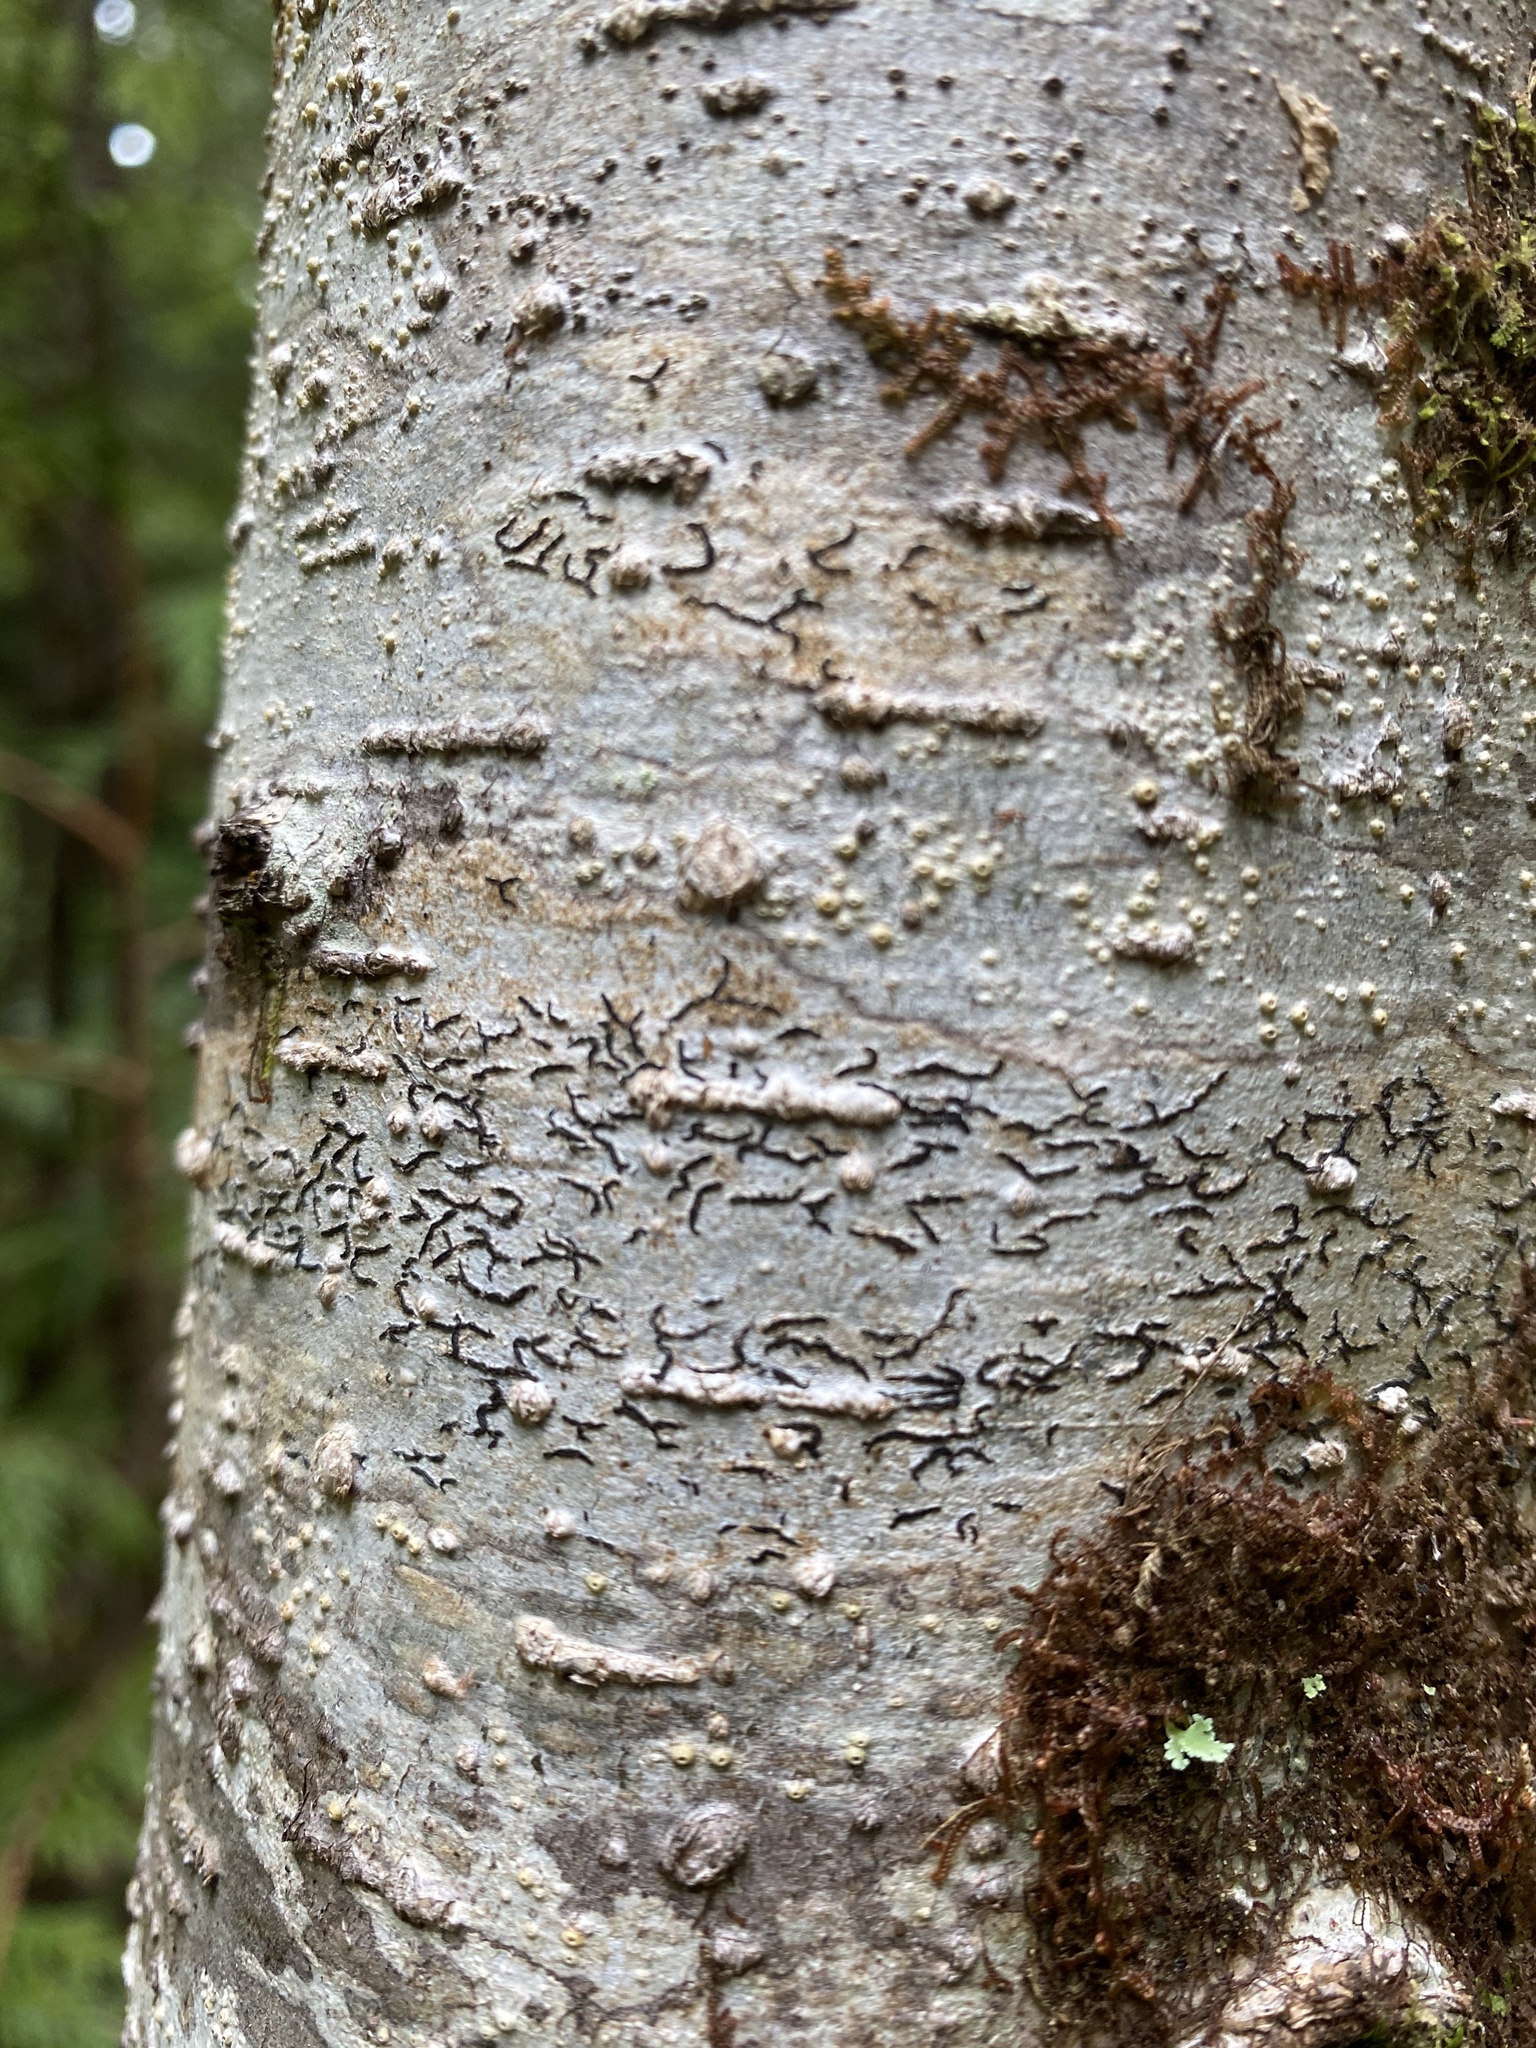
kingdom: Fungi
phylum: Ascomycota
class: Lecanoromycetes
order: Ostropales
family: Graphidaceae
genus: Graphis
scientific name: Graphis scripta
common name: Script lichen
